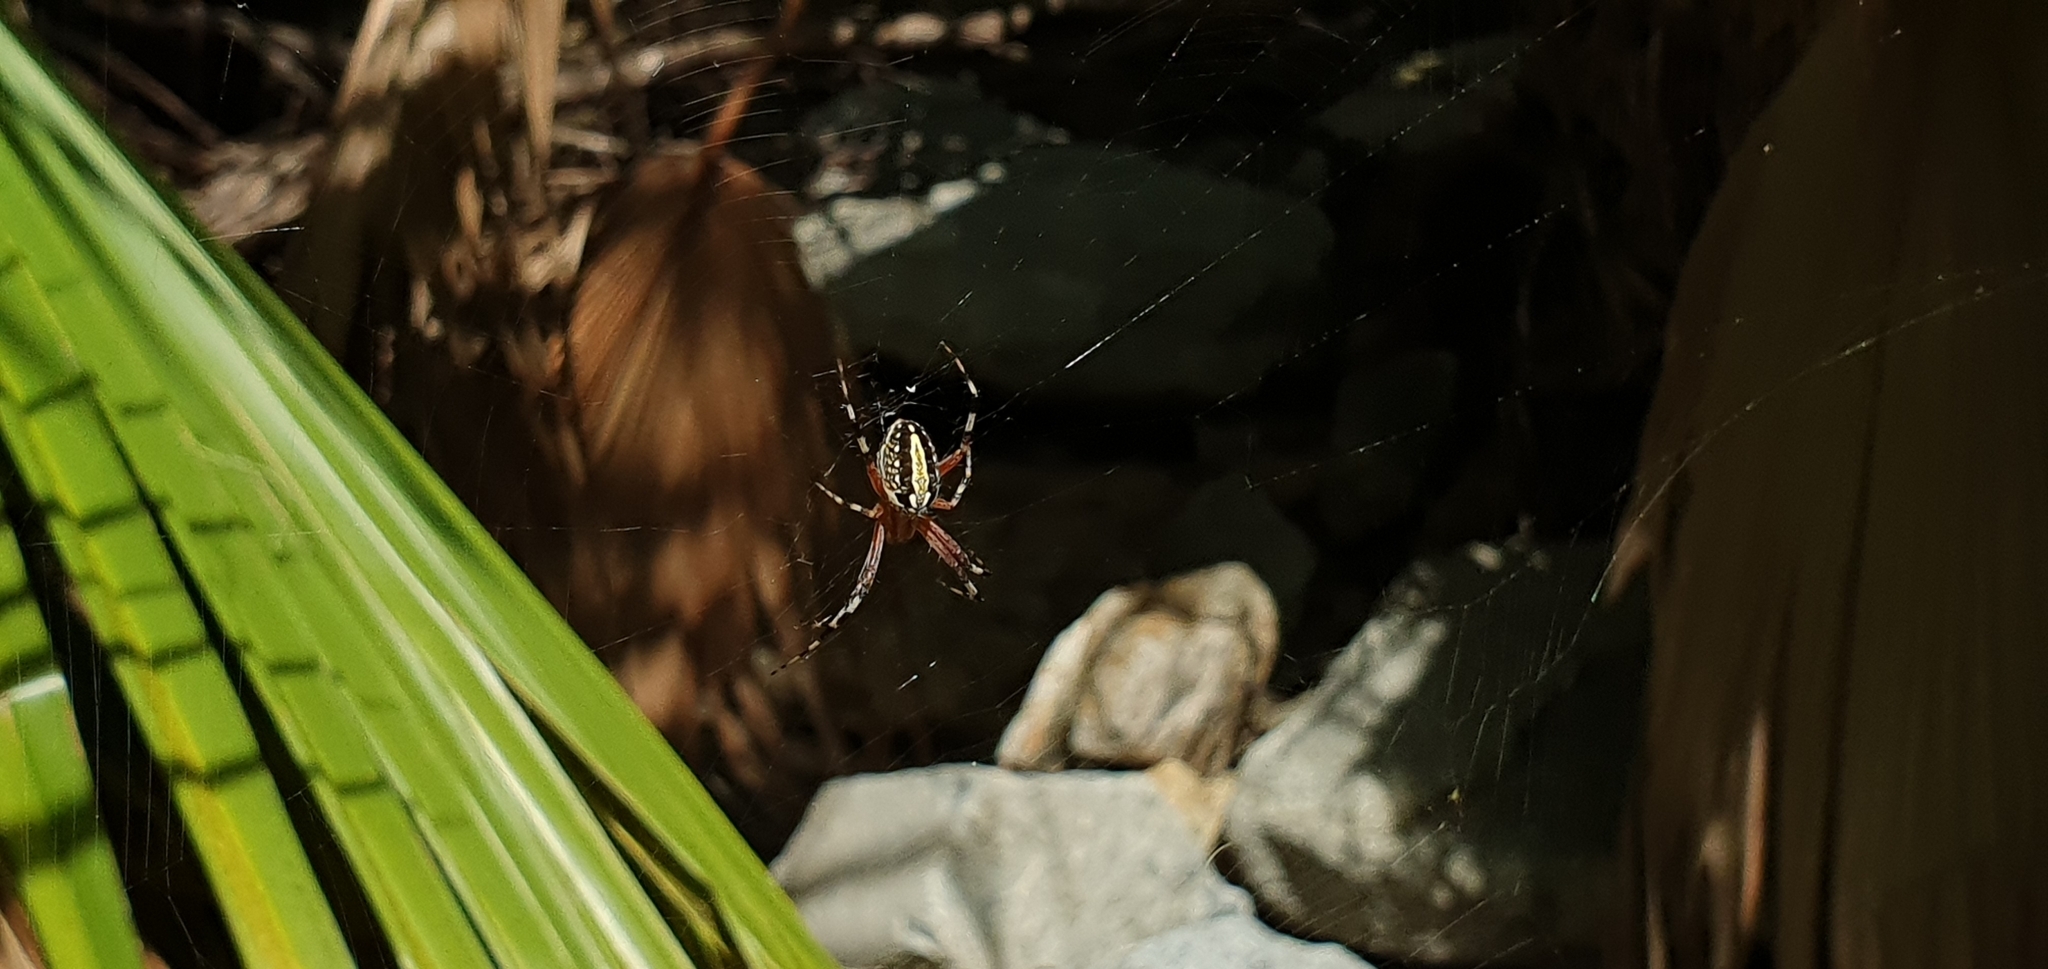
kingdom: Animalia
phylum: Arthropoda
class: Arachnida
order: Araneae
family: Araneidae
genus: Neoscona
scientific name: Neoscona oaxacensis
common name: Orb weavers
